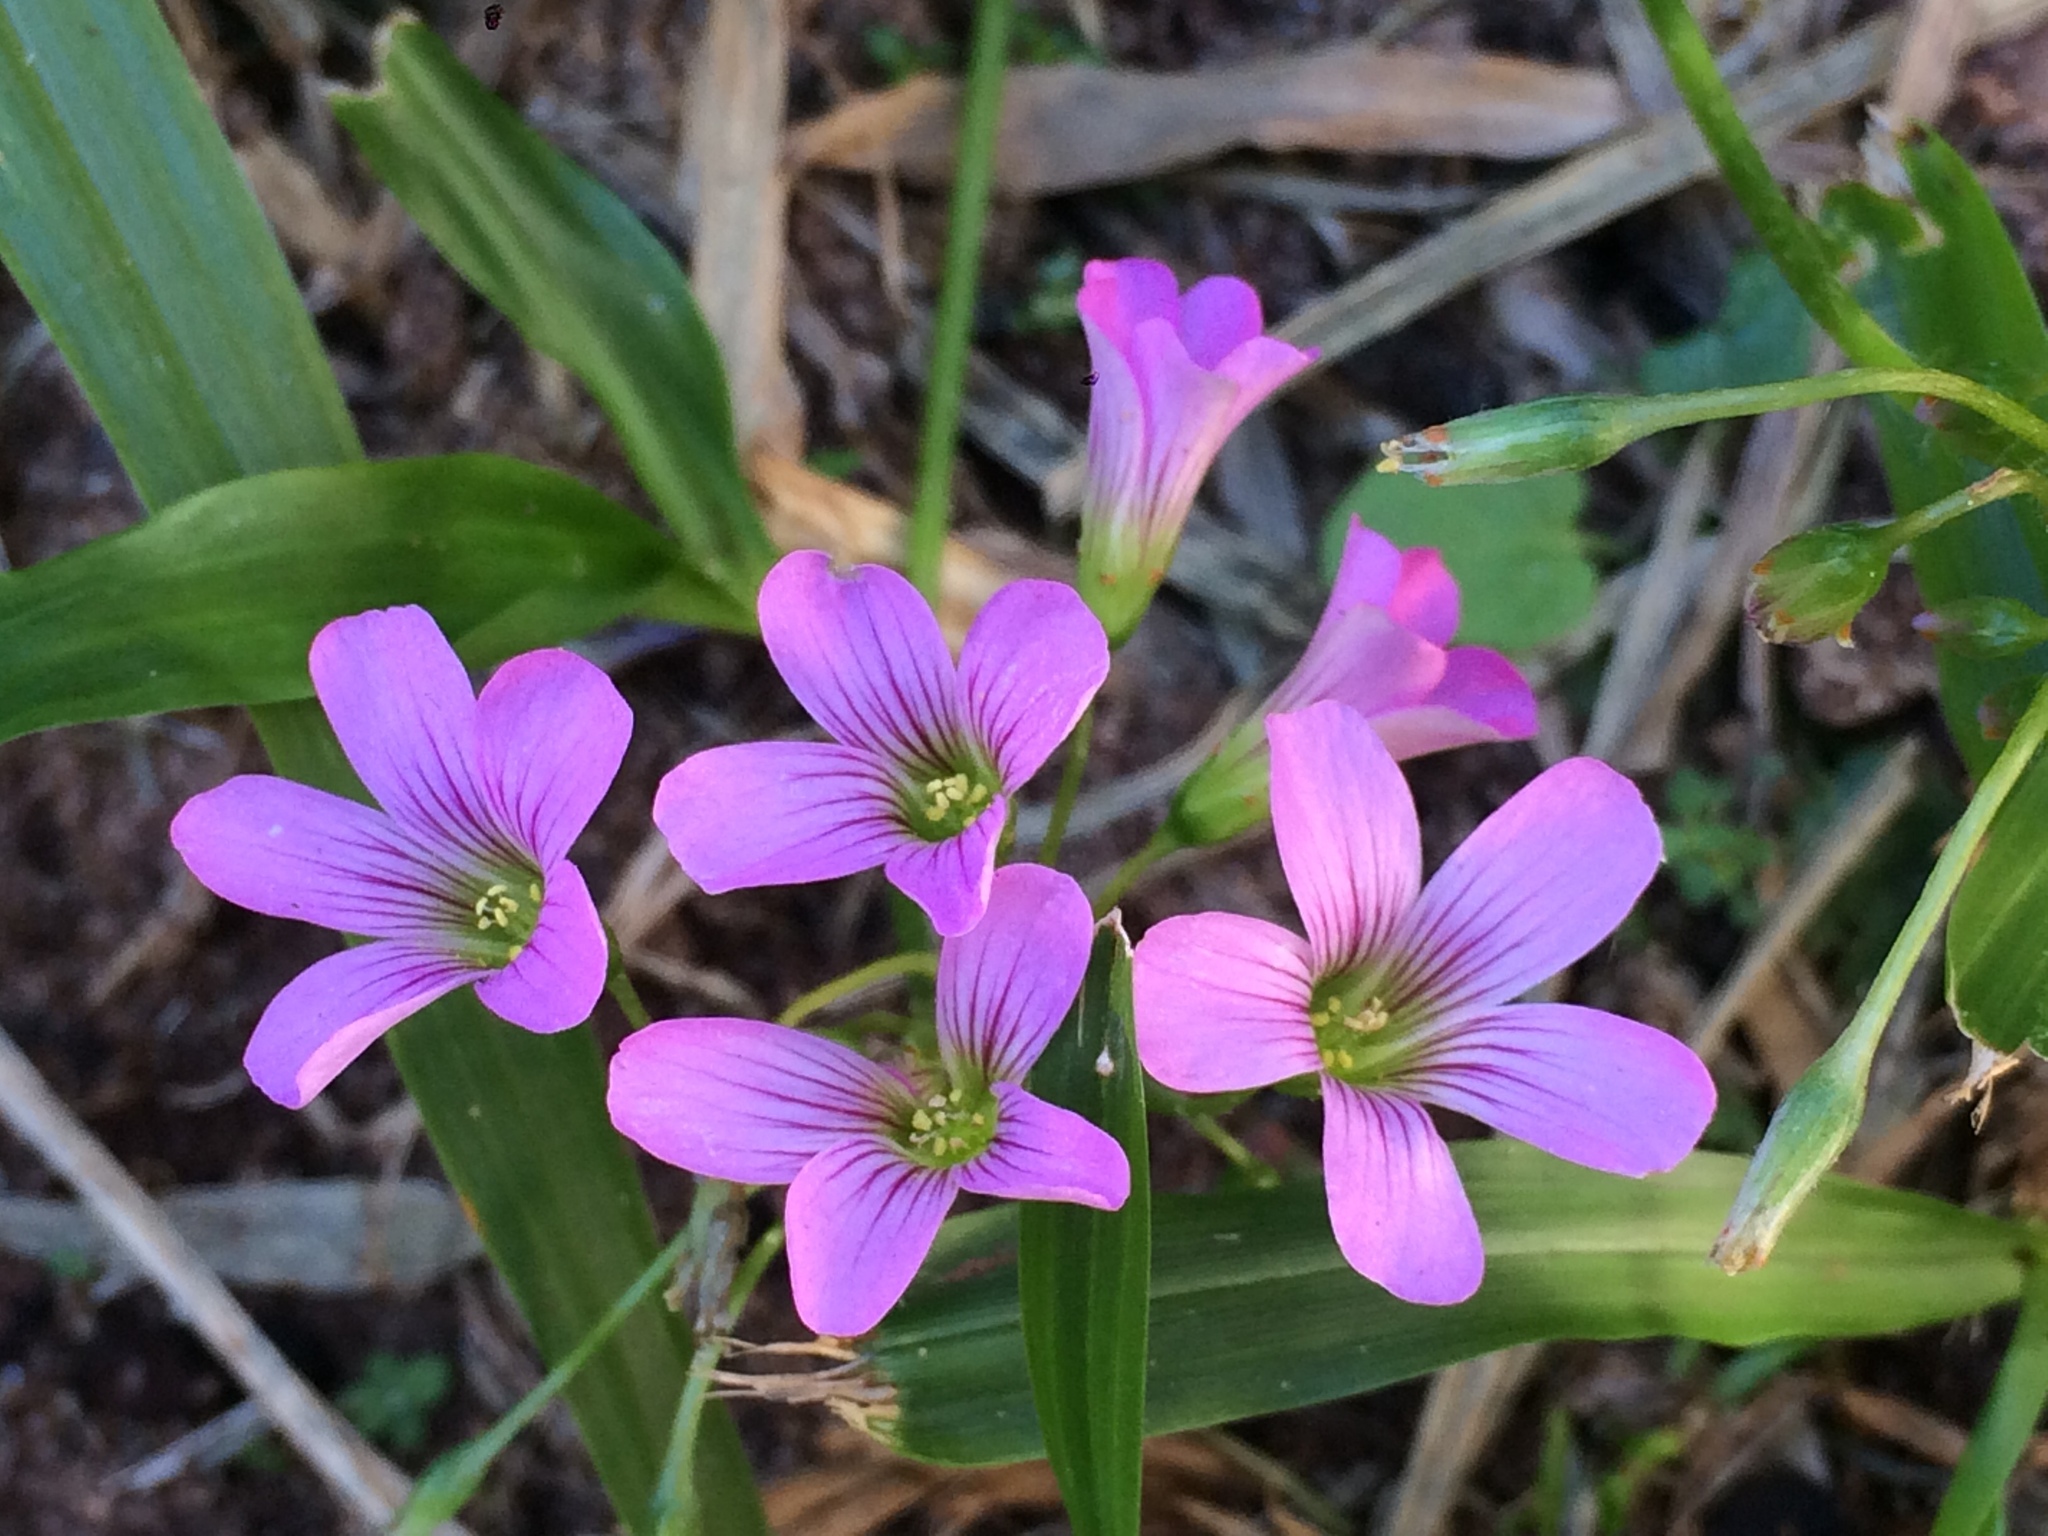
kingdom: Plantae
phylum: Tracheophyta
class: Magnoliopsida
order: Oxalidales
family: Oxalidaceae
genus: Oxalis
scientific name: Oxalis debilis
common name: Large-flowered pink-sorrel
